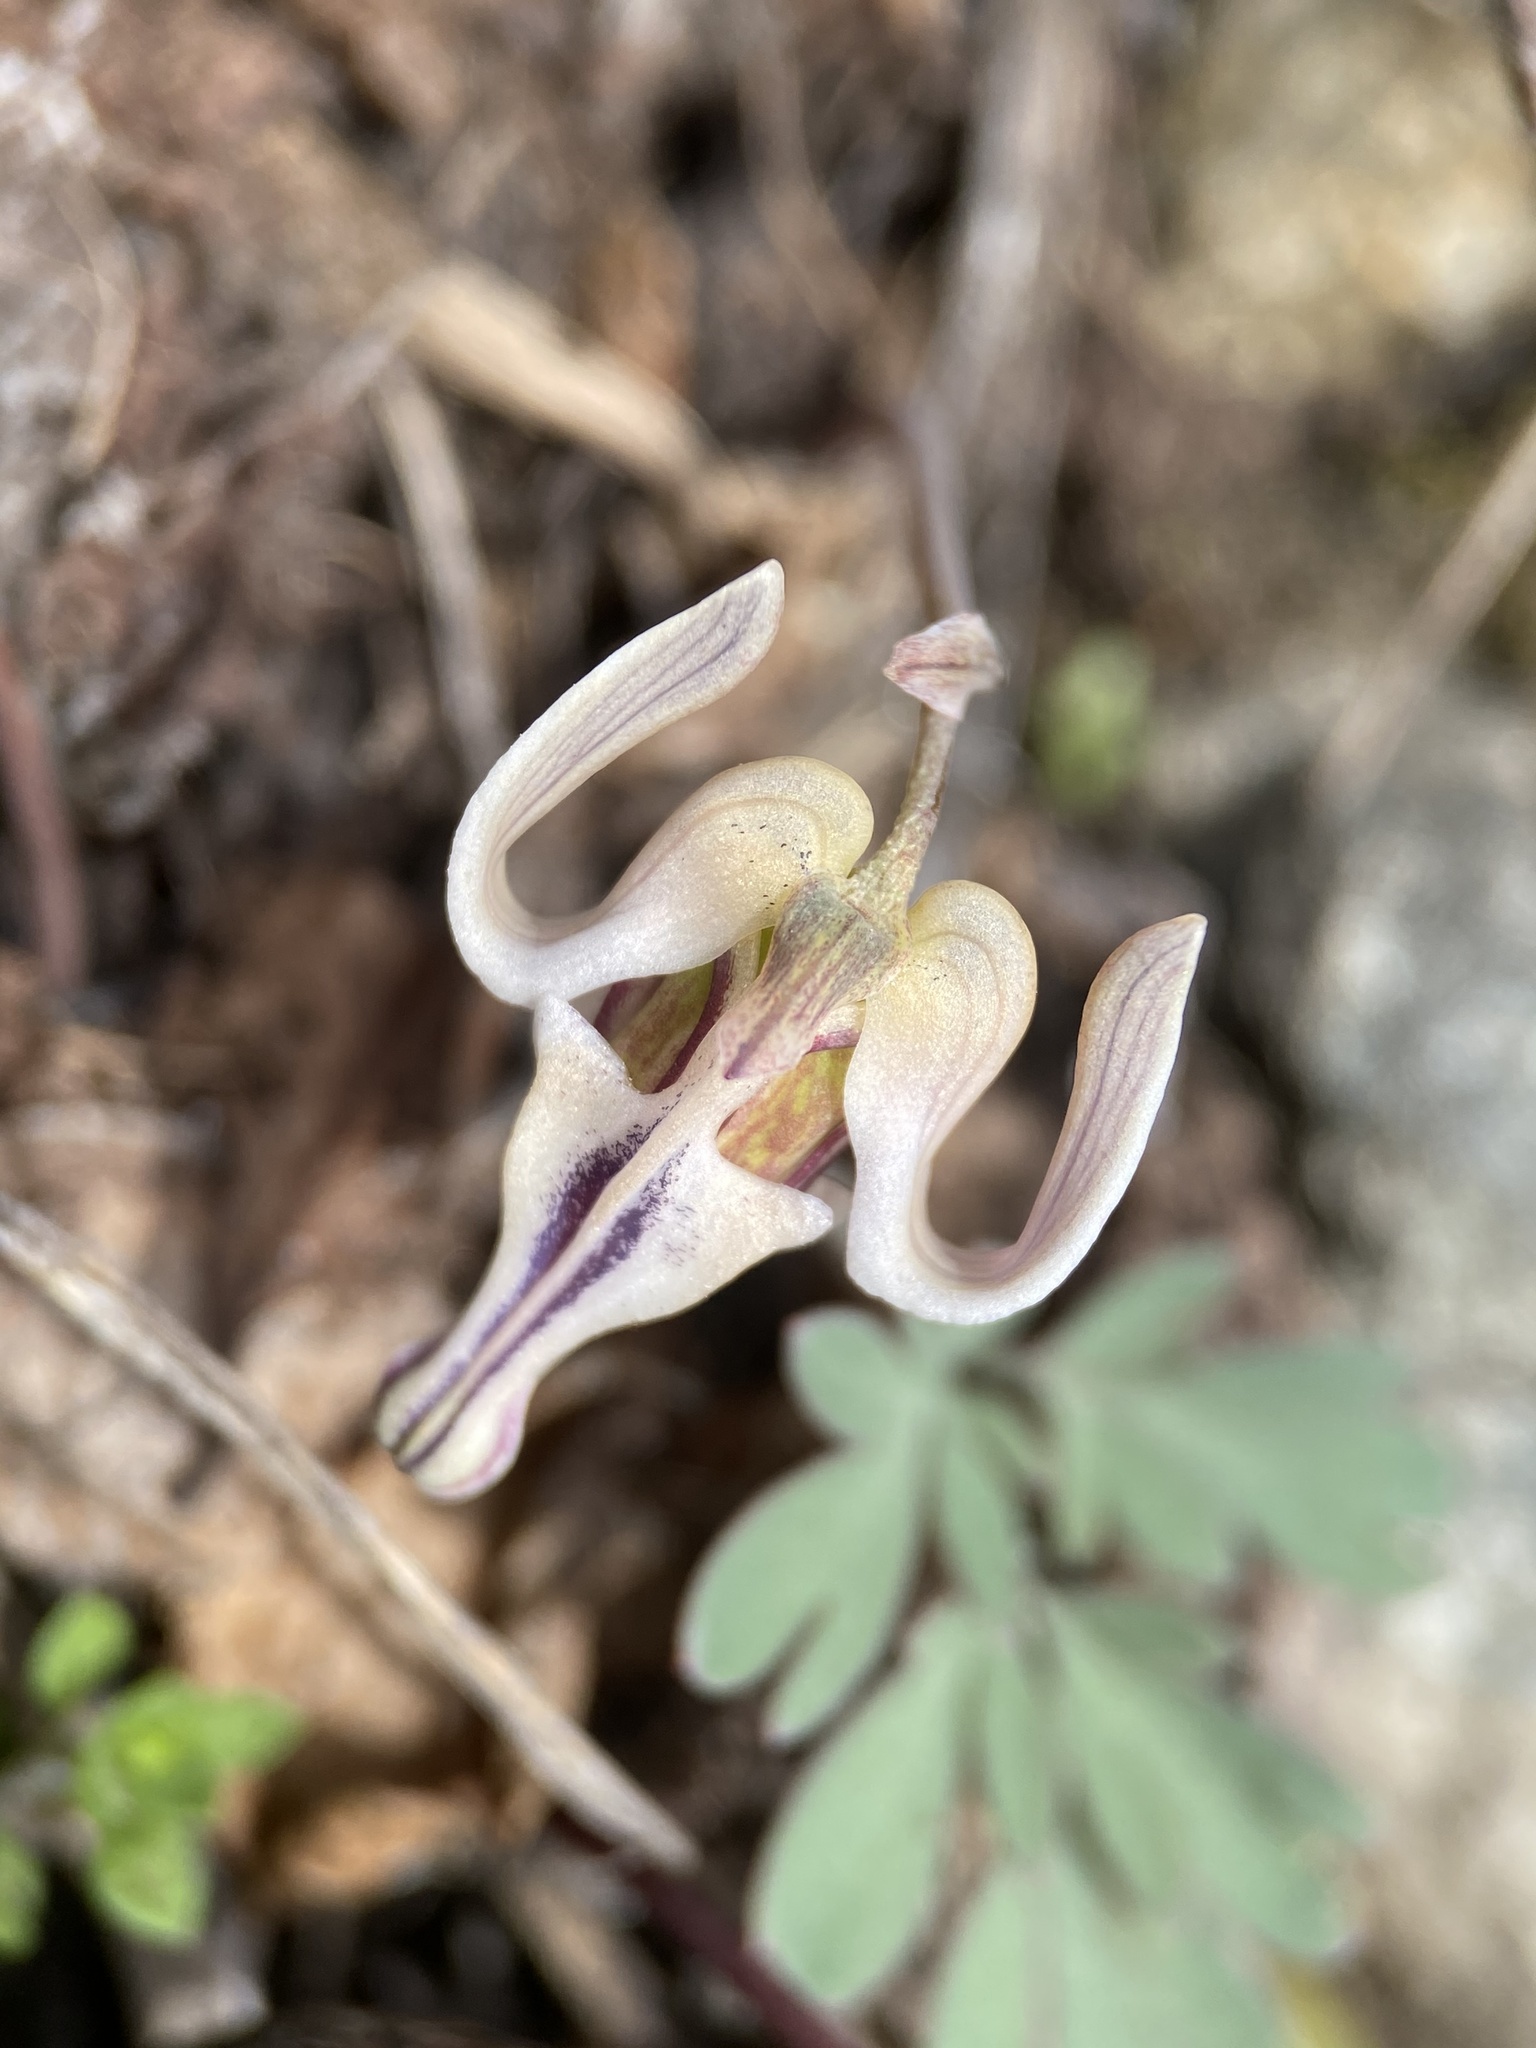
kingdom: Plantae
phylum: Tracheophyta
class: Magnoliopsida
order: Ranunculales
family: Papaveraceae
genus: Dicentra
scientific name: Dicentra uniflora
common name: Steer's-head
